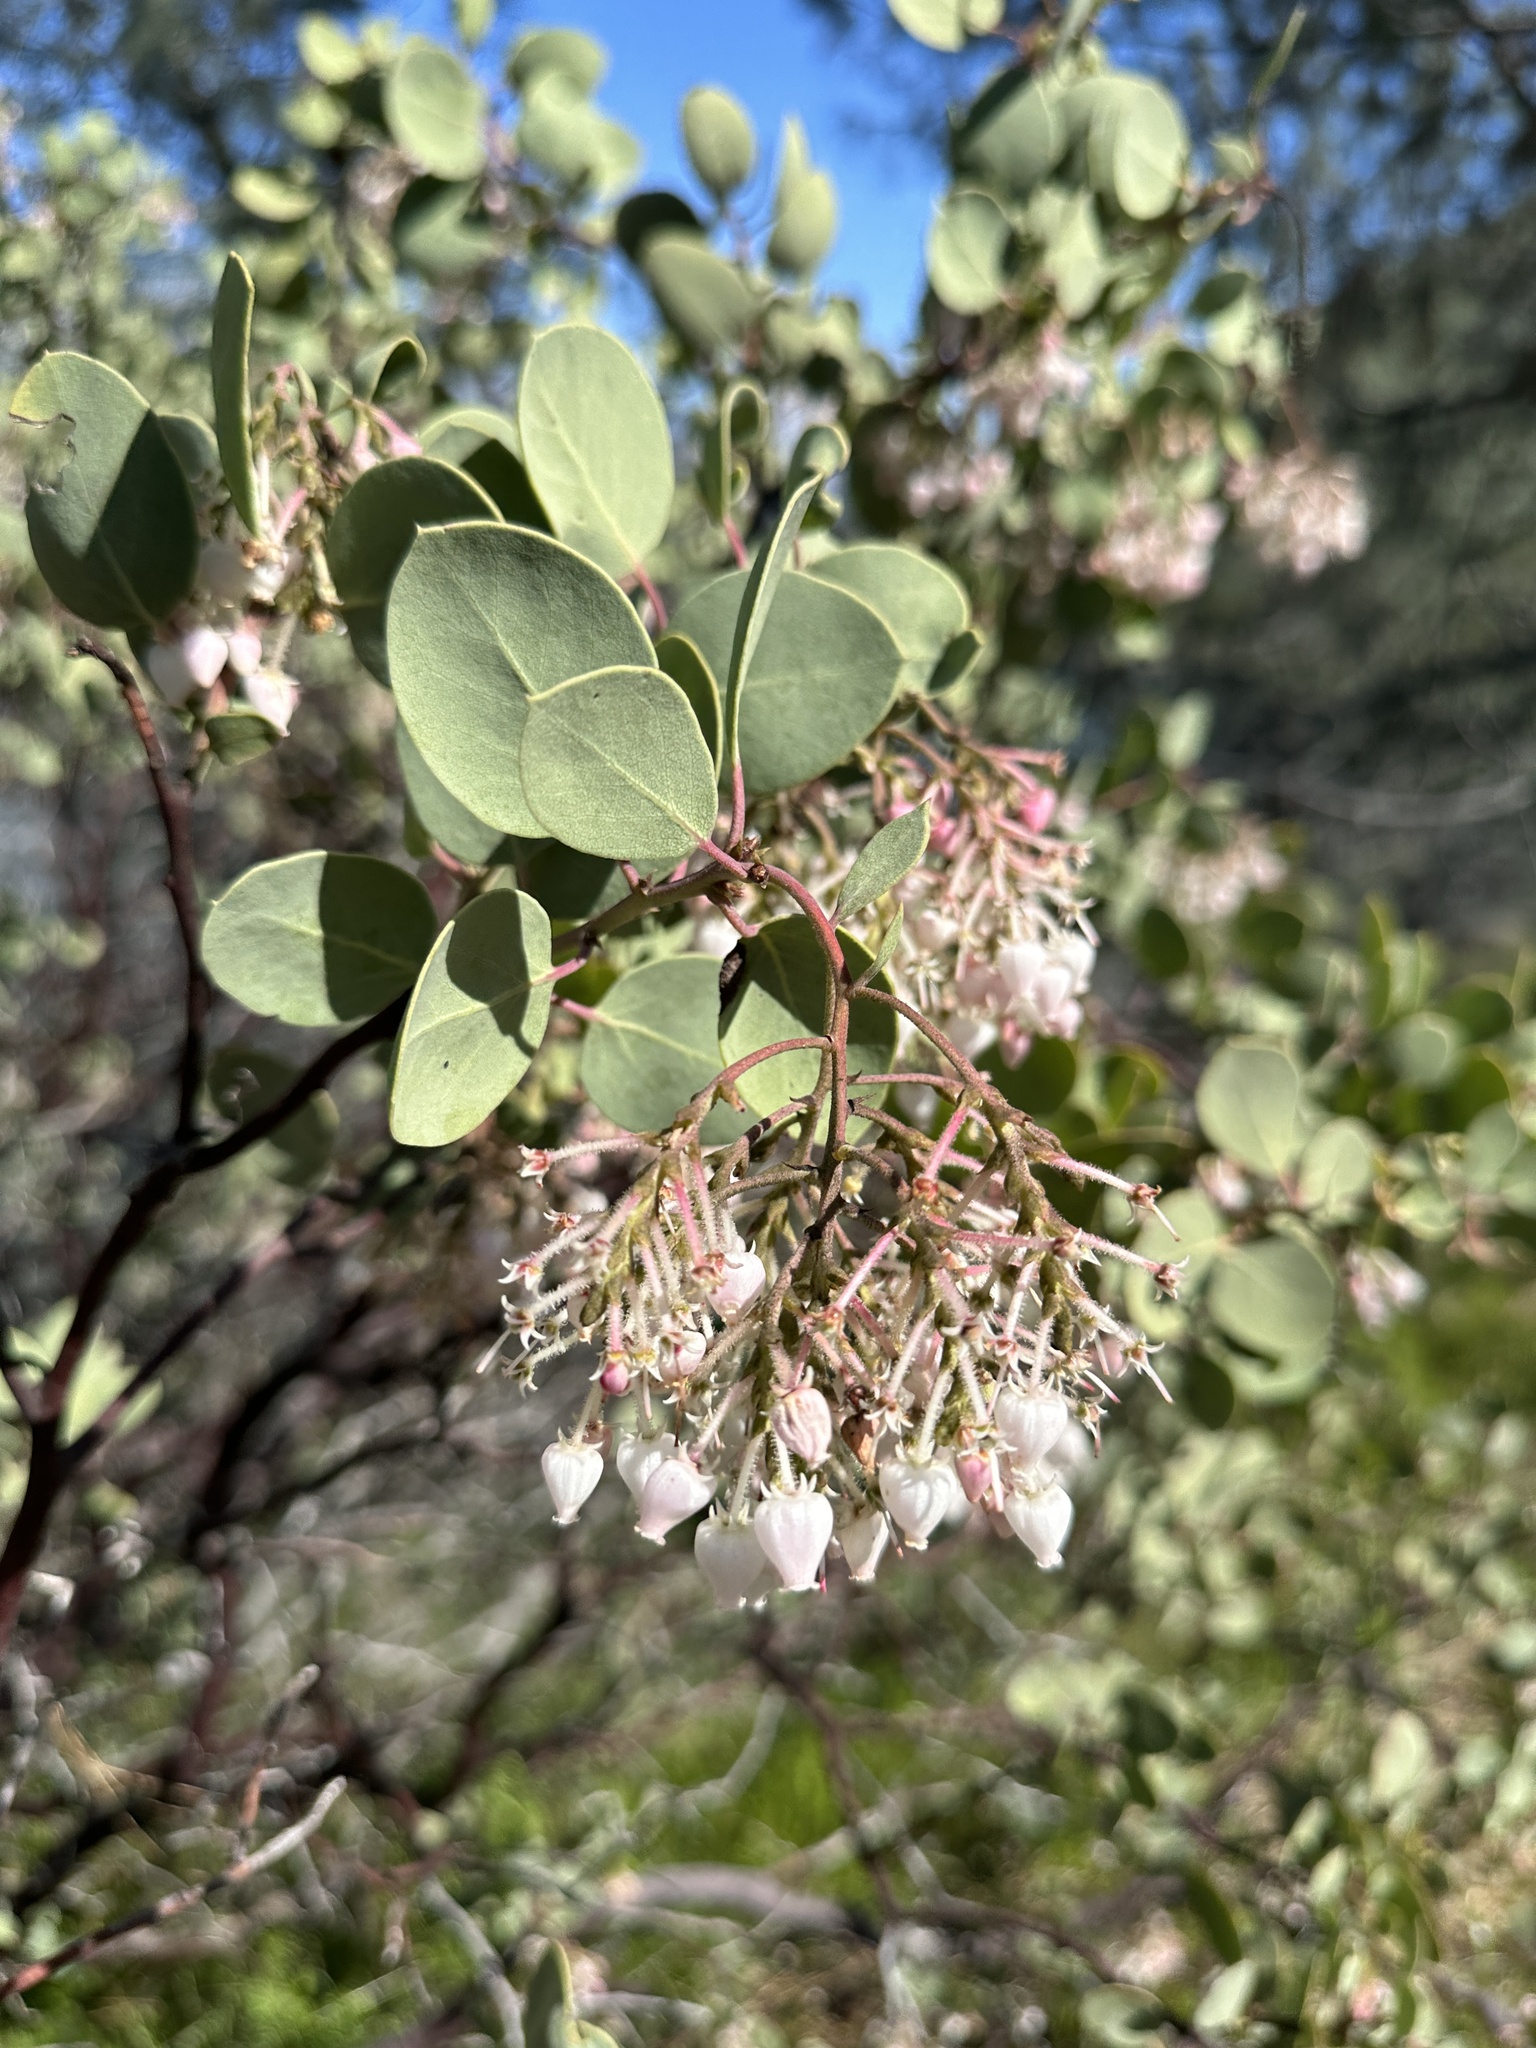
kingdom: Plantae
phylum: Tracheophyta
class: Magnoliopsida
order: Ericales
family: Ericaceae
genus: Arctostaphylos
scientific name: Arctostaphylos viscida
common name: White-leaf manzanita
